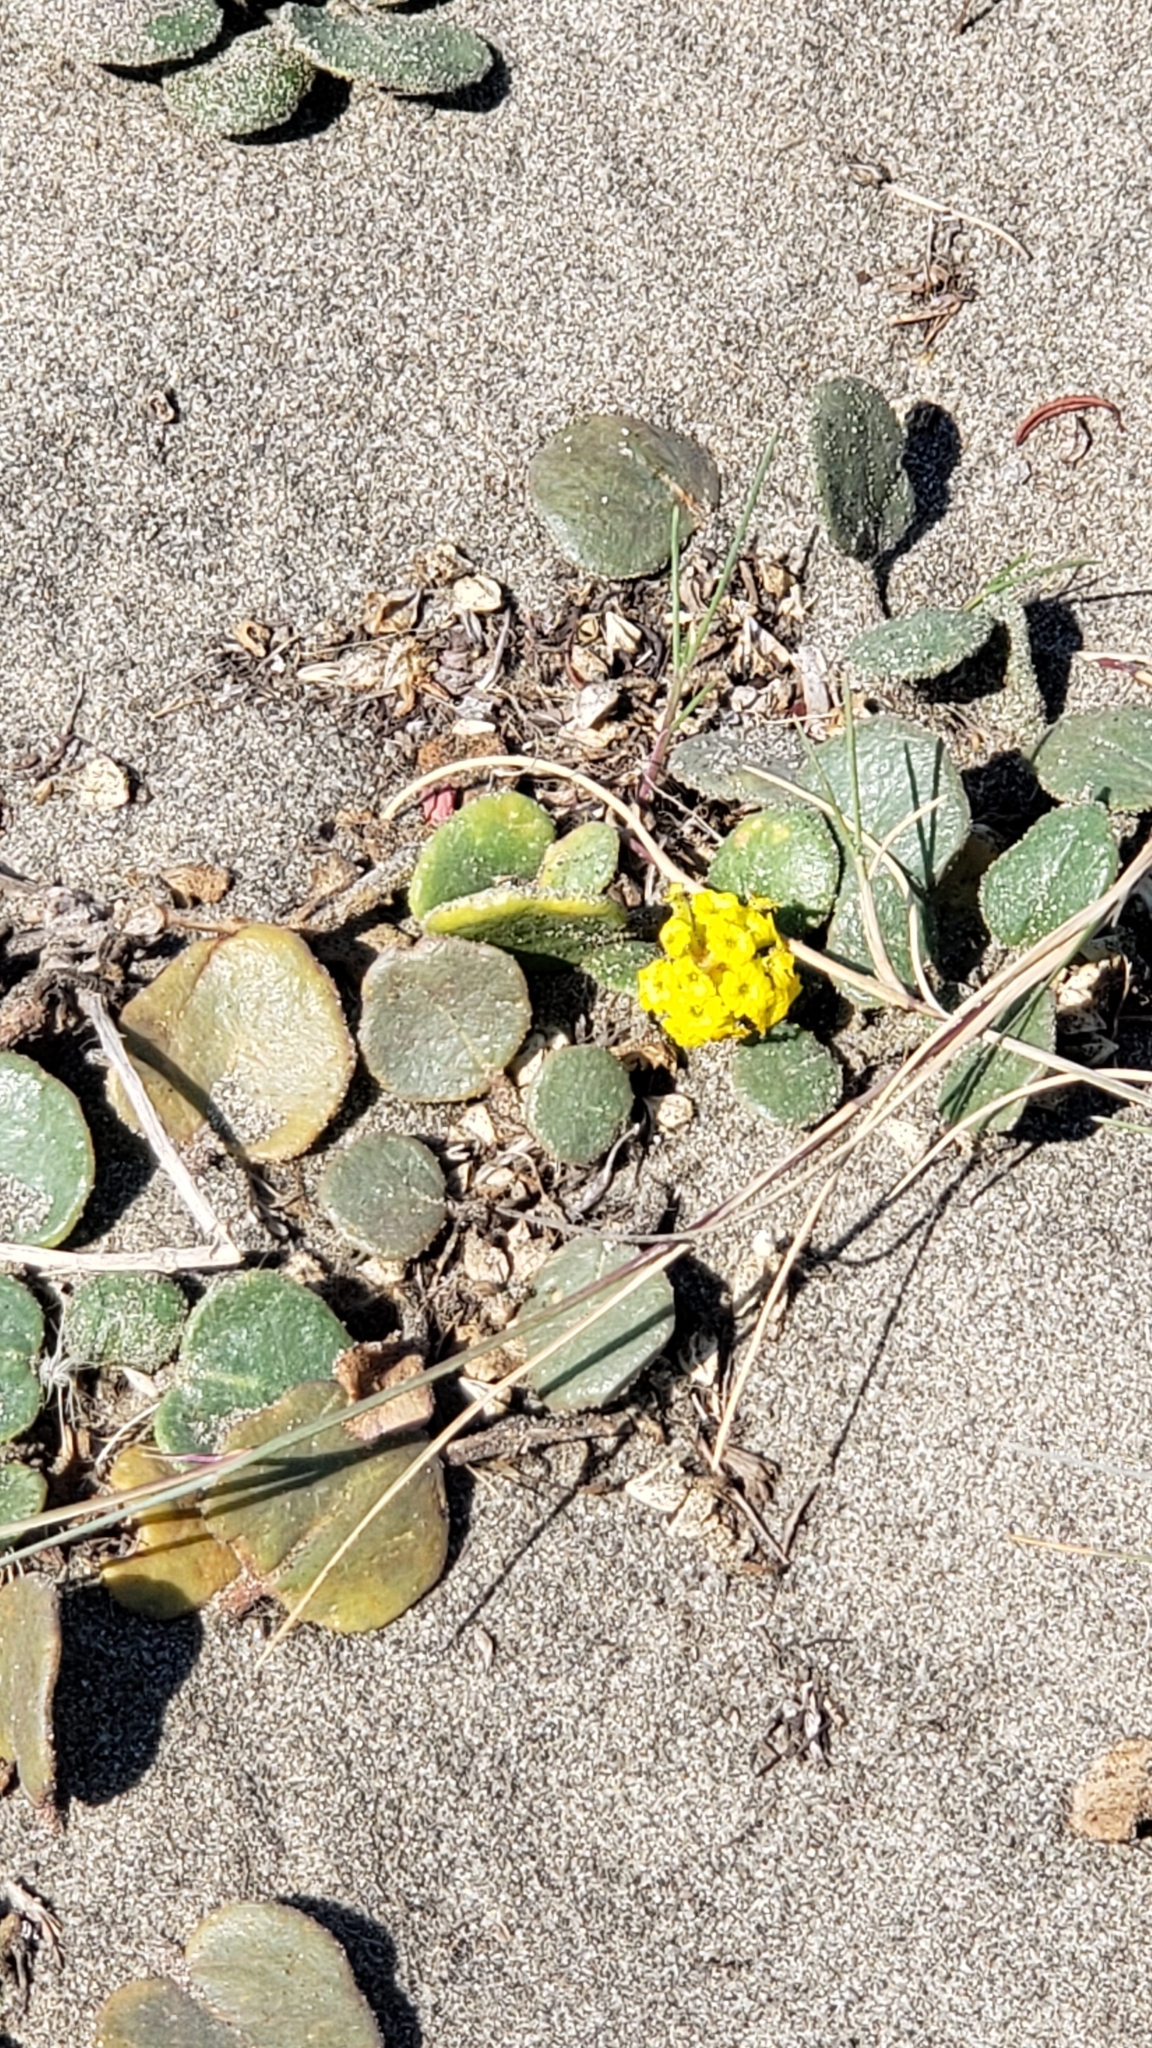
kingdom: Plantae
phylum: Tracheophyta
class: Magnoliopsida
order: Caryophyllales
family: Nyctaginaceae
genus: Abronia
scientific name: Abronia latifolia
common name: Yellow sand-verbena
